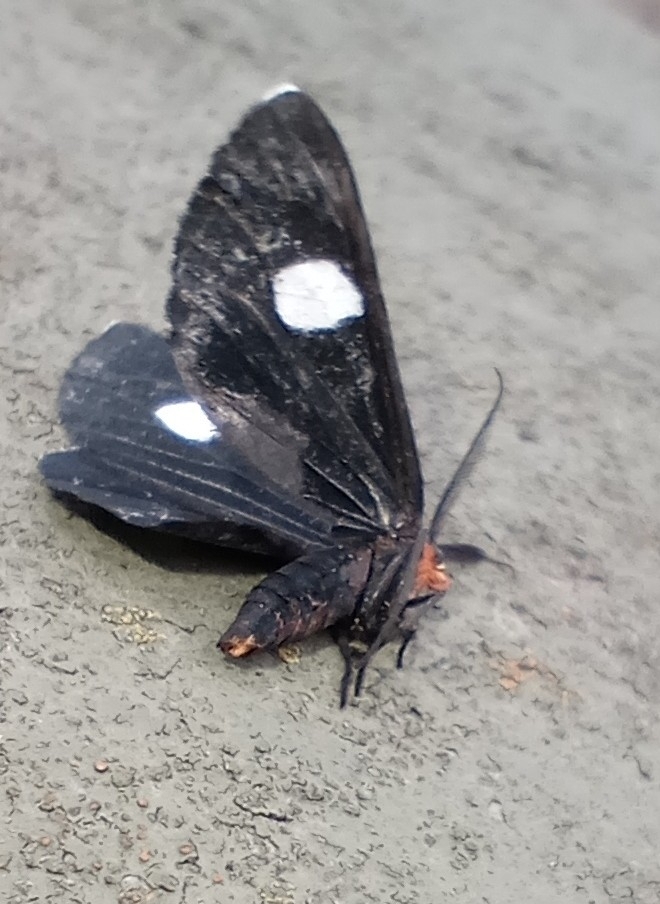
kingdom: Animalia
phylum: Arthropoda
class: Insecta
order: Lepidoptera
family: Geometridae
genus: Melanchroia
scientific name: Melanchroia aterea
